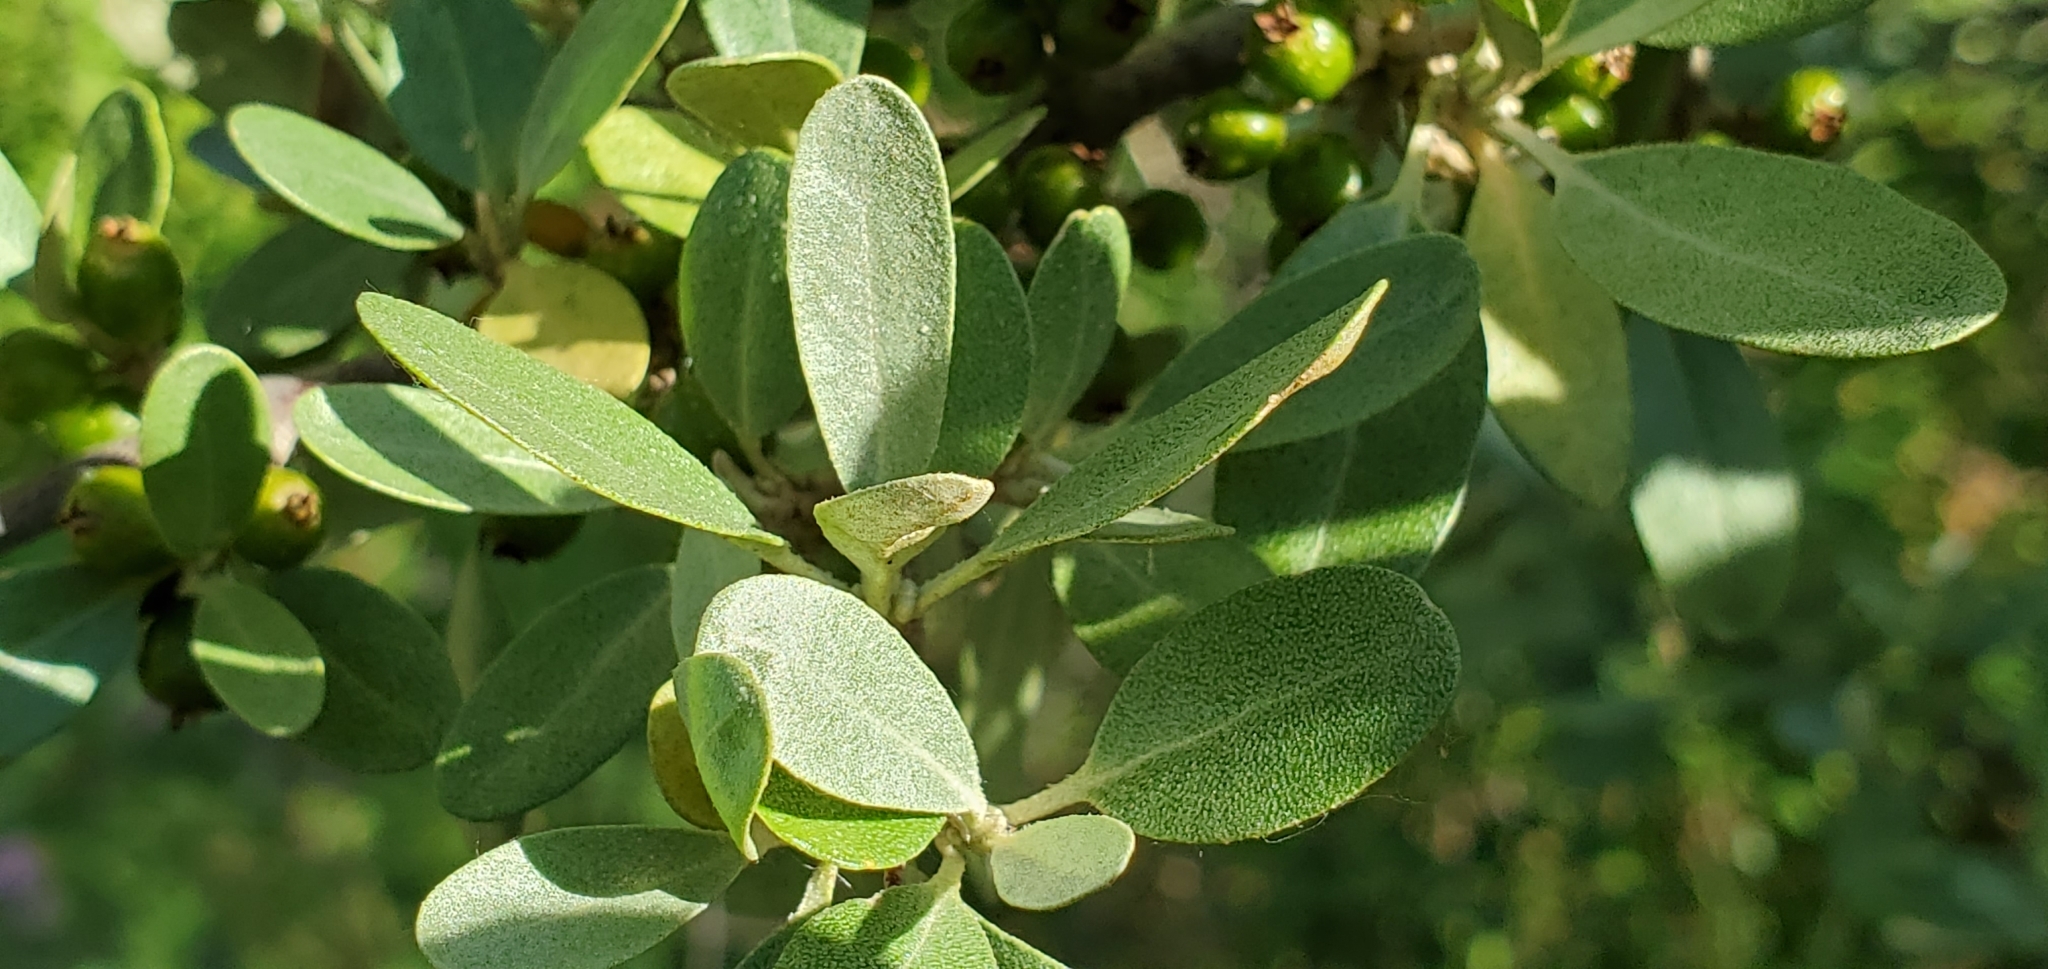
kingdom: Plantae
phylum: Tracheophyta
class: Magnoliopsida
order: Rosales
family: Elaeagnaceae
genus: Shepherdia
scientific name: Shepherdia argentea
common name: Silver buffaloberry
